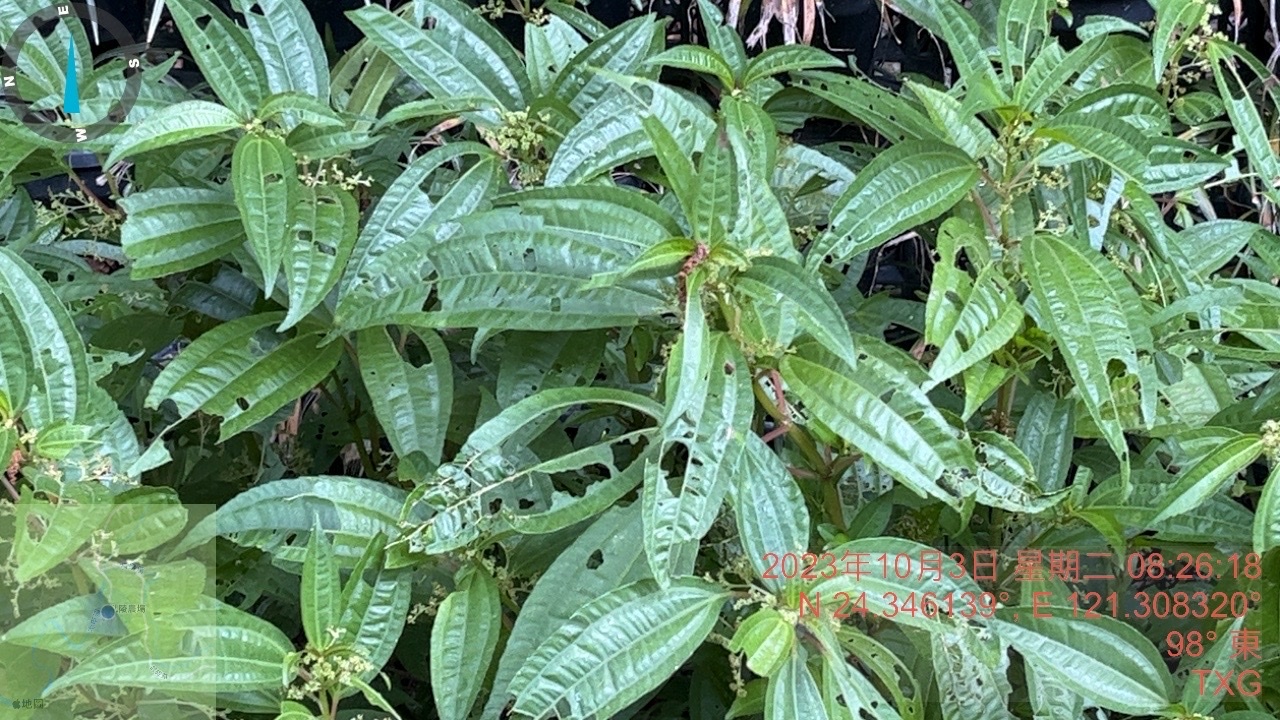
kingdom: Plantae
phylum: Tracheophyta
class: Magnoliopsida
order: Rosales
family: Urticaceae
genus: Pilea
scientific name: Pilea rotundinucula
